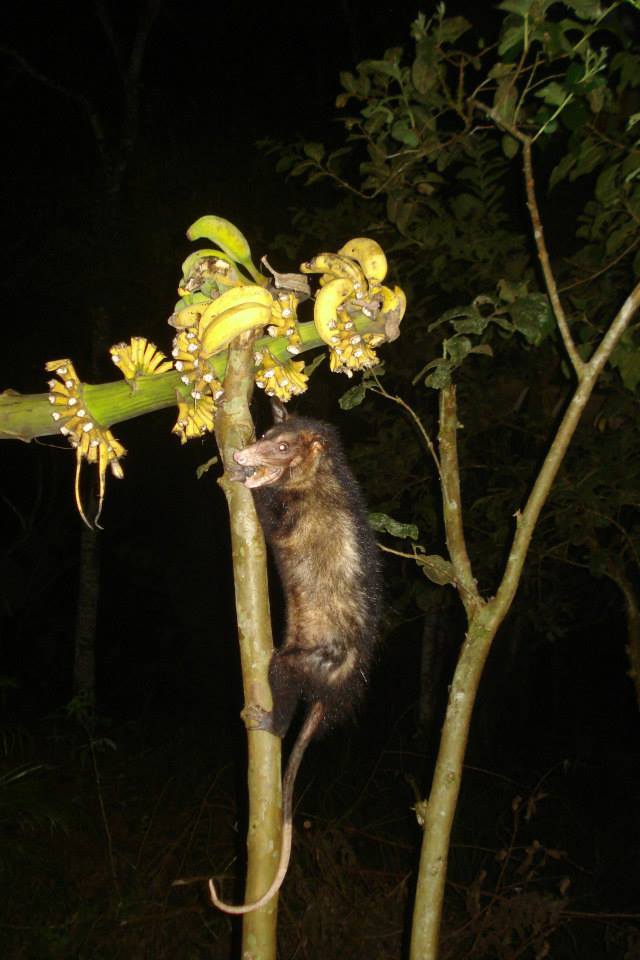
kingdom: Animalia
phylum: Chordata
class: Mammalia
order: Didelphimorphia
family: Didelphidae
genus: Didelphis
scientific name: Didelphis aurita
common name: Big-eared opossum
